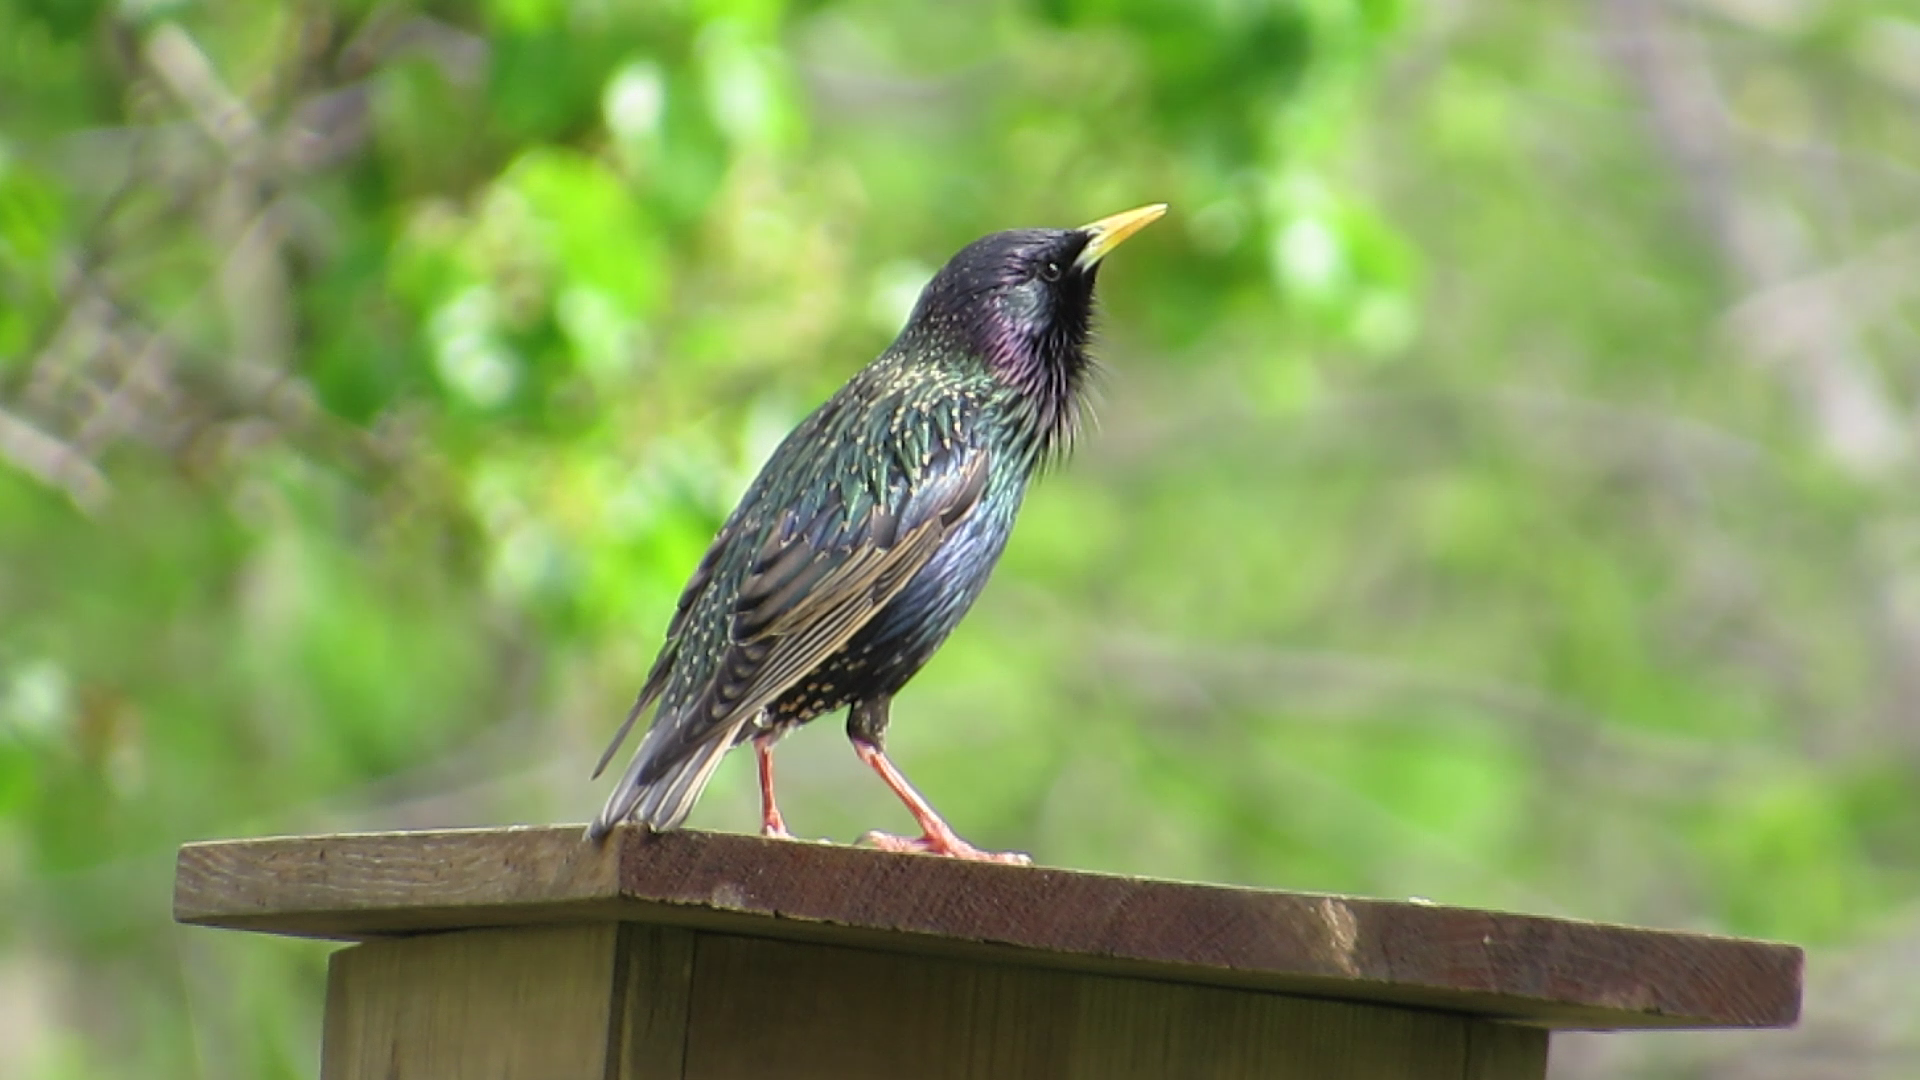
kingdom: Animalia
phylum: Chordata
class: Aves
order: Passeriformes
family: Sturnidae
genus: Sturnus
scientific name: Sturnus vulgaris
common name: Common starling
